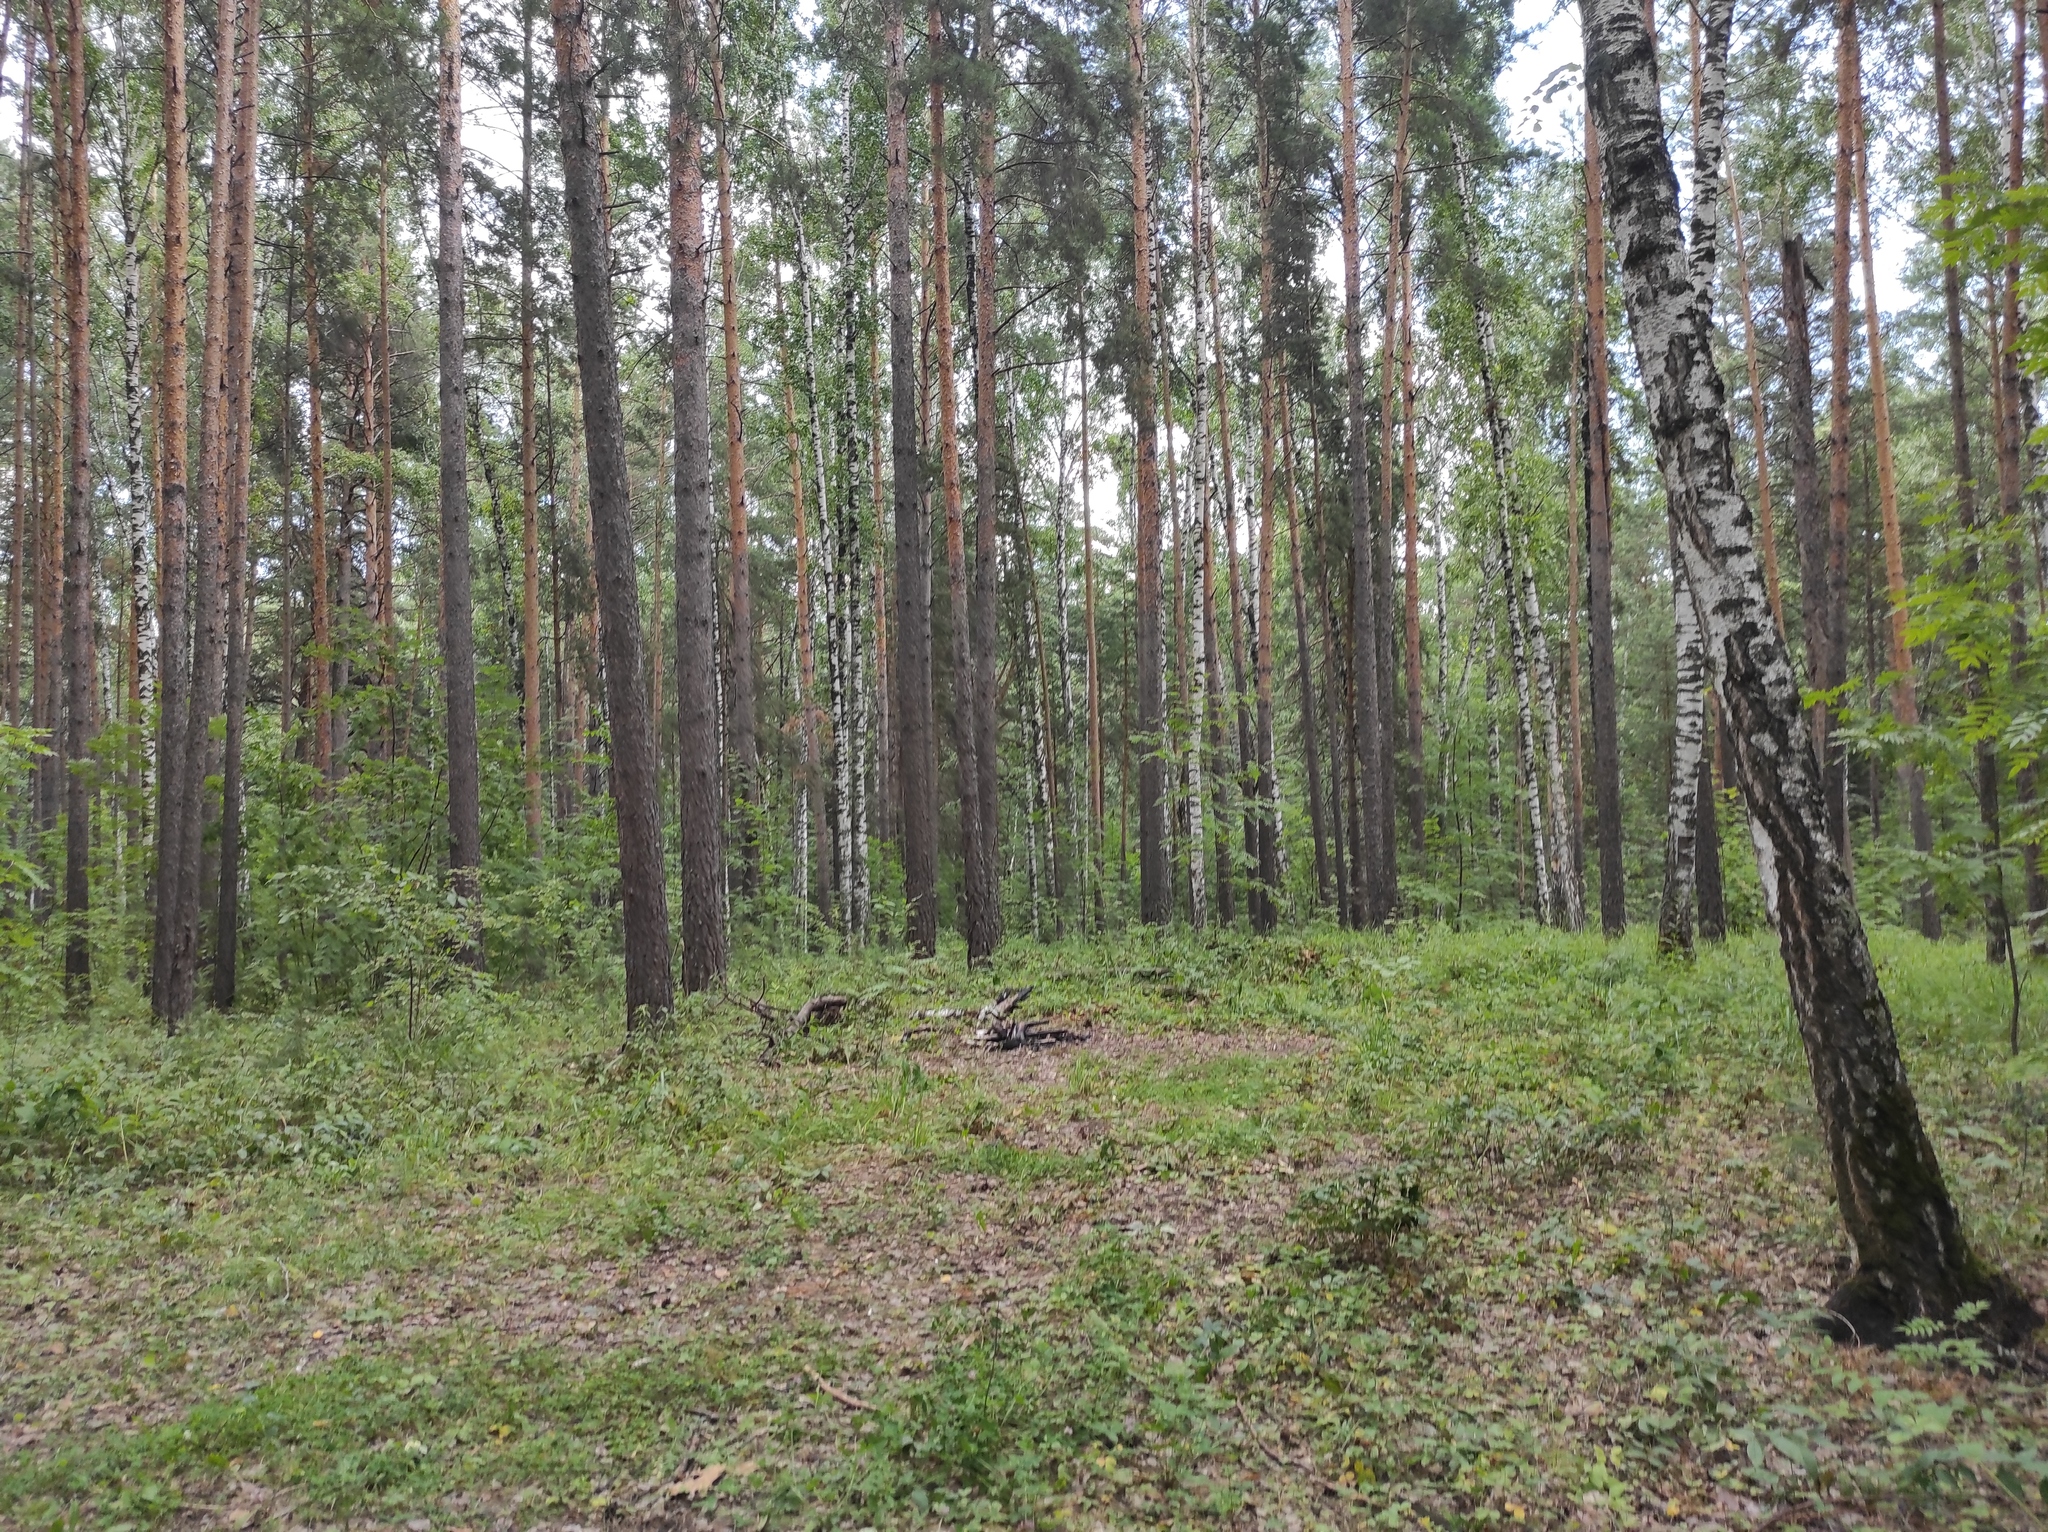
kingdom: Plantae
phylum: Tracheophyta
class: Pinopsida
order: Pinales
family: Pinaceae
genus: Pinus
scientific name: Pinus sylvestris
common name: Scots pine
